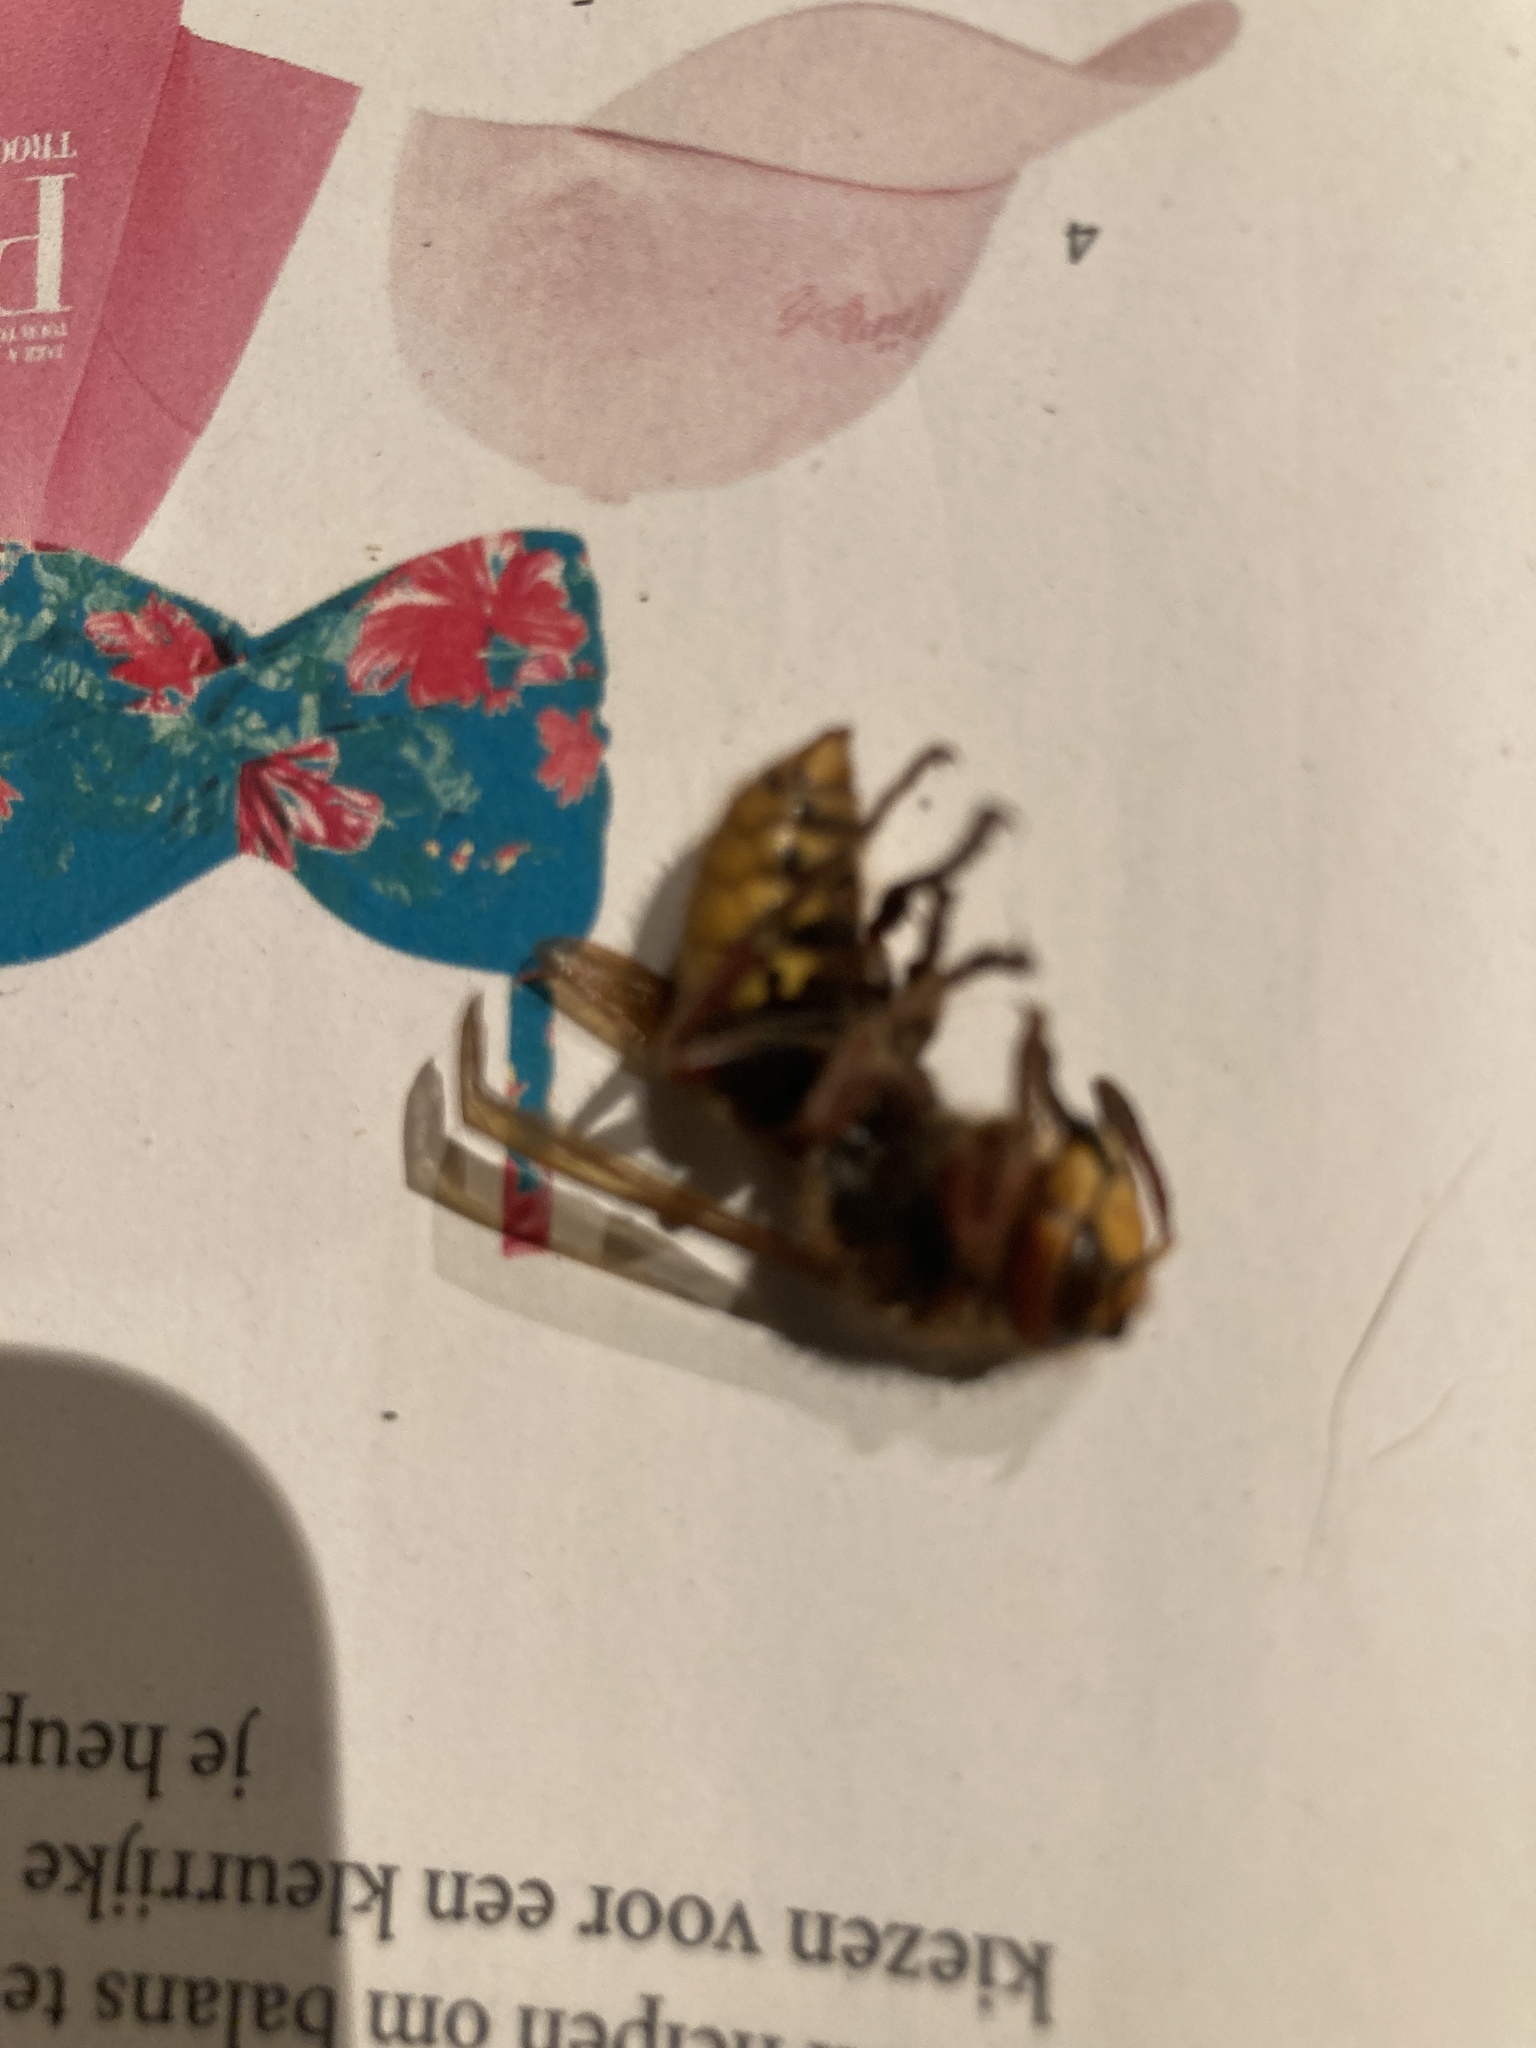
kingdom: Animalia
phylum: Arthropoda
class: Insecta
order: Hymenoptera
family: Vespidae
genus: Vespa
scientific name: Vespa crabro
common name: Hornet
